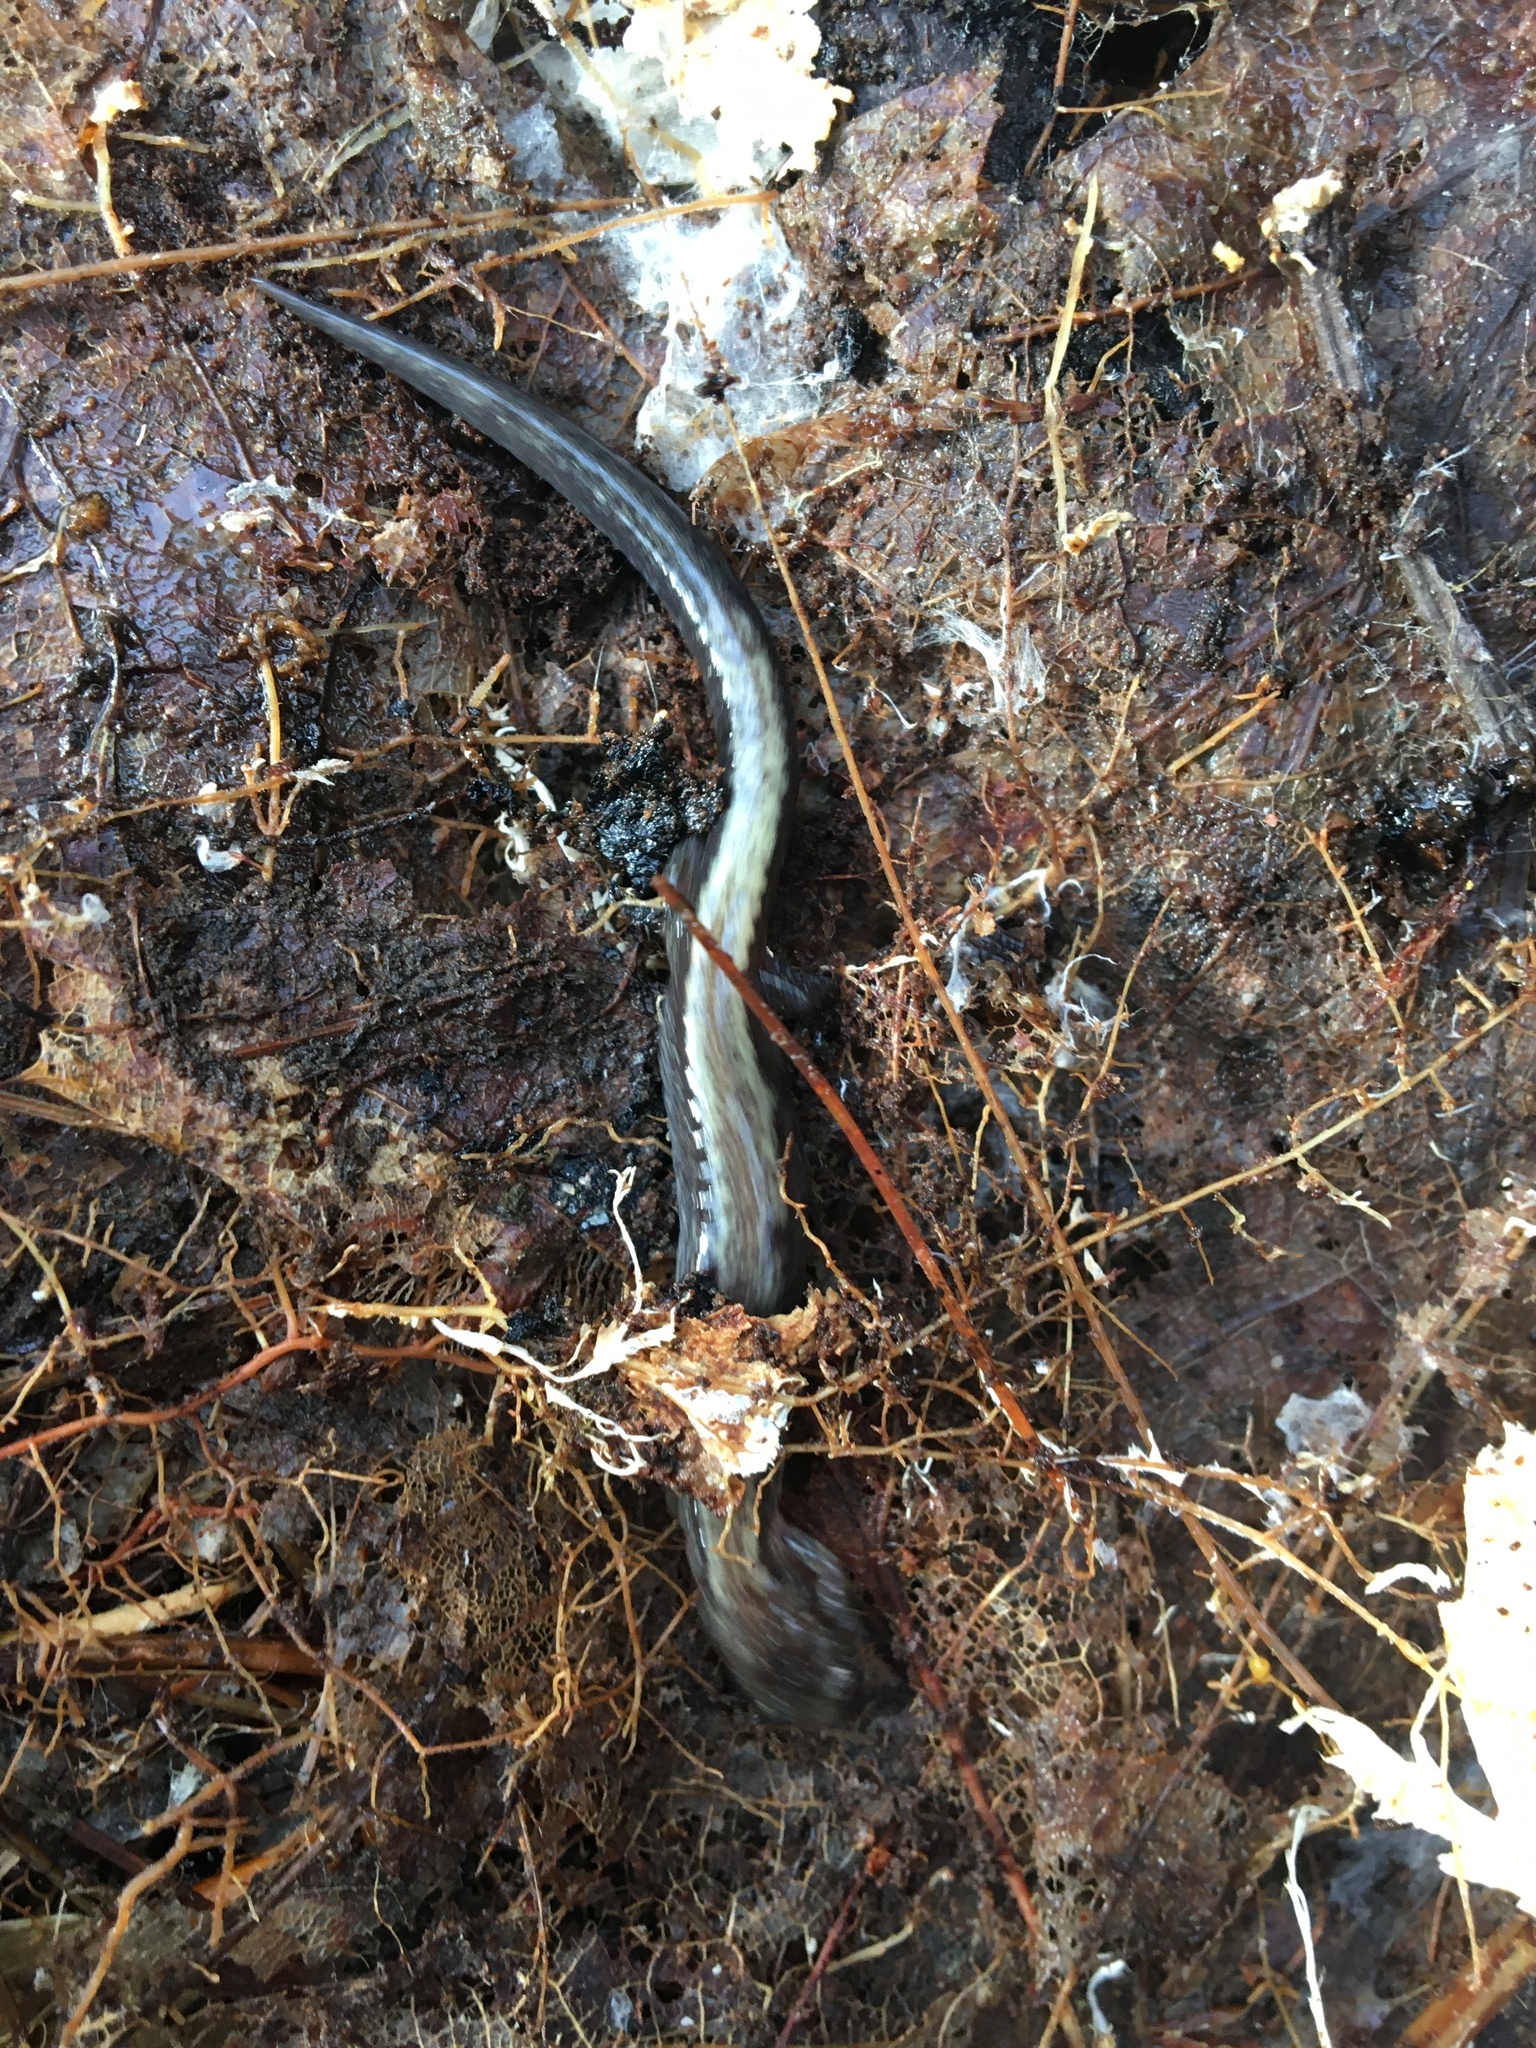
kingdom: Animalia
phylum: Chordata
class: Amphibia
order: Caudata
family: Plethodontidae
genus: Plethodon
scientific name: Plethodon cinereus
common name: Redback salamander
